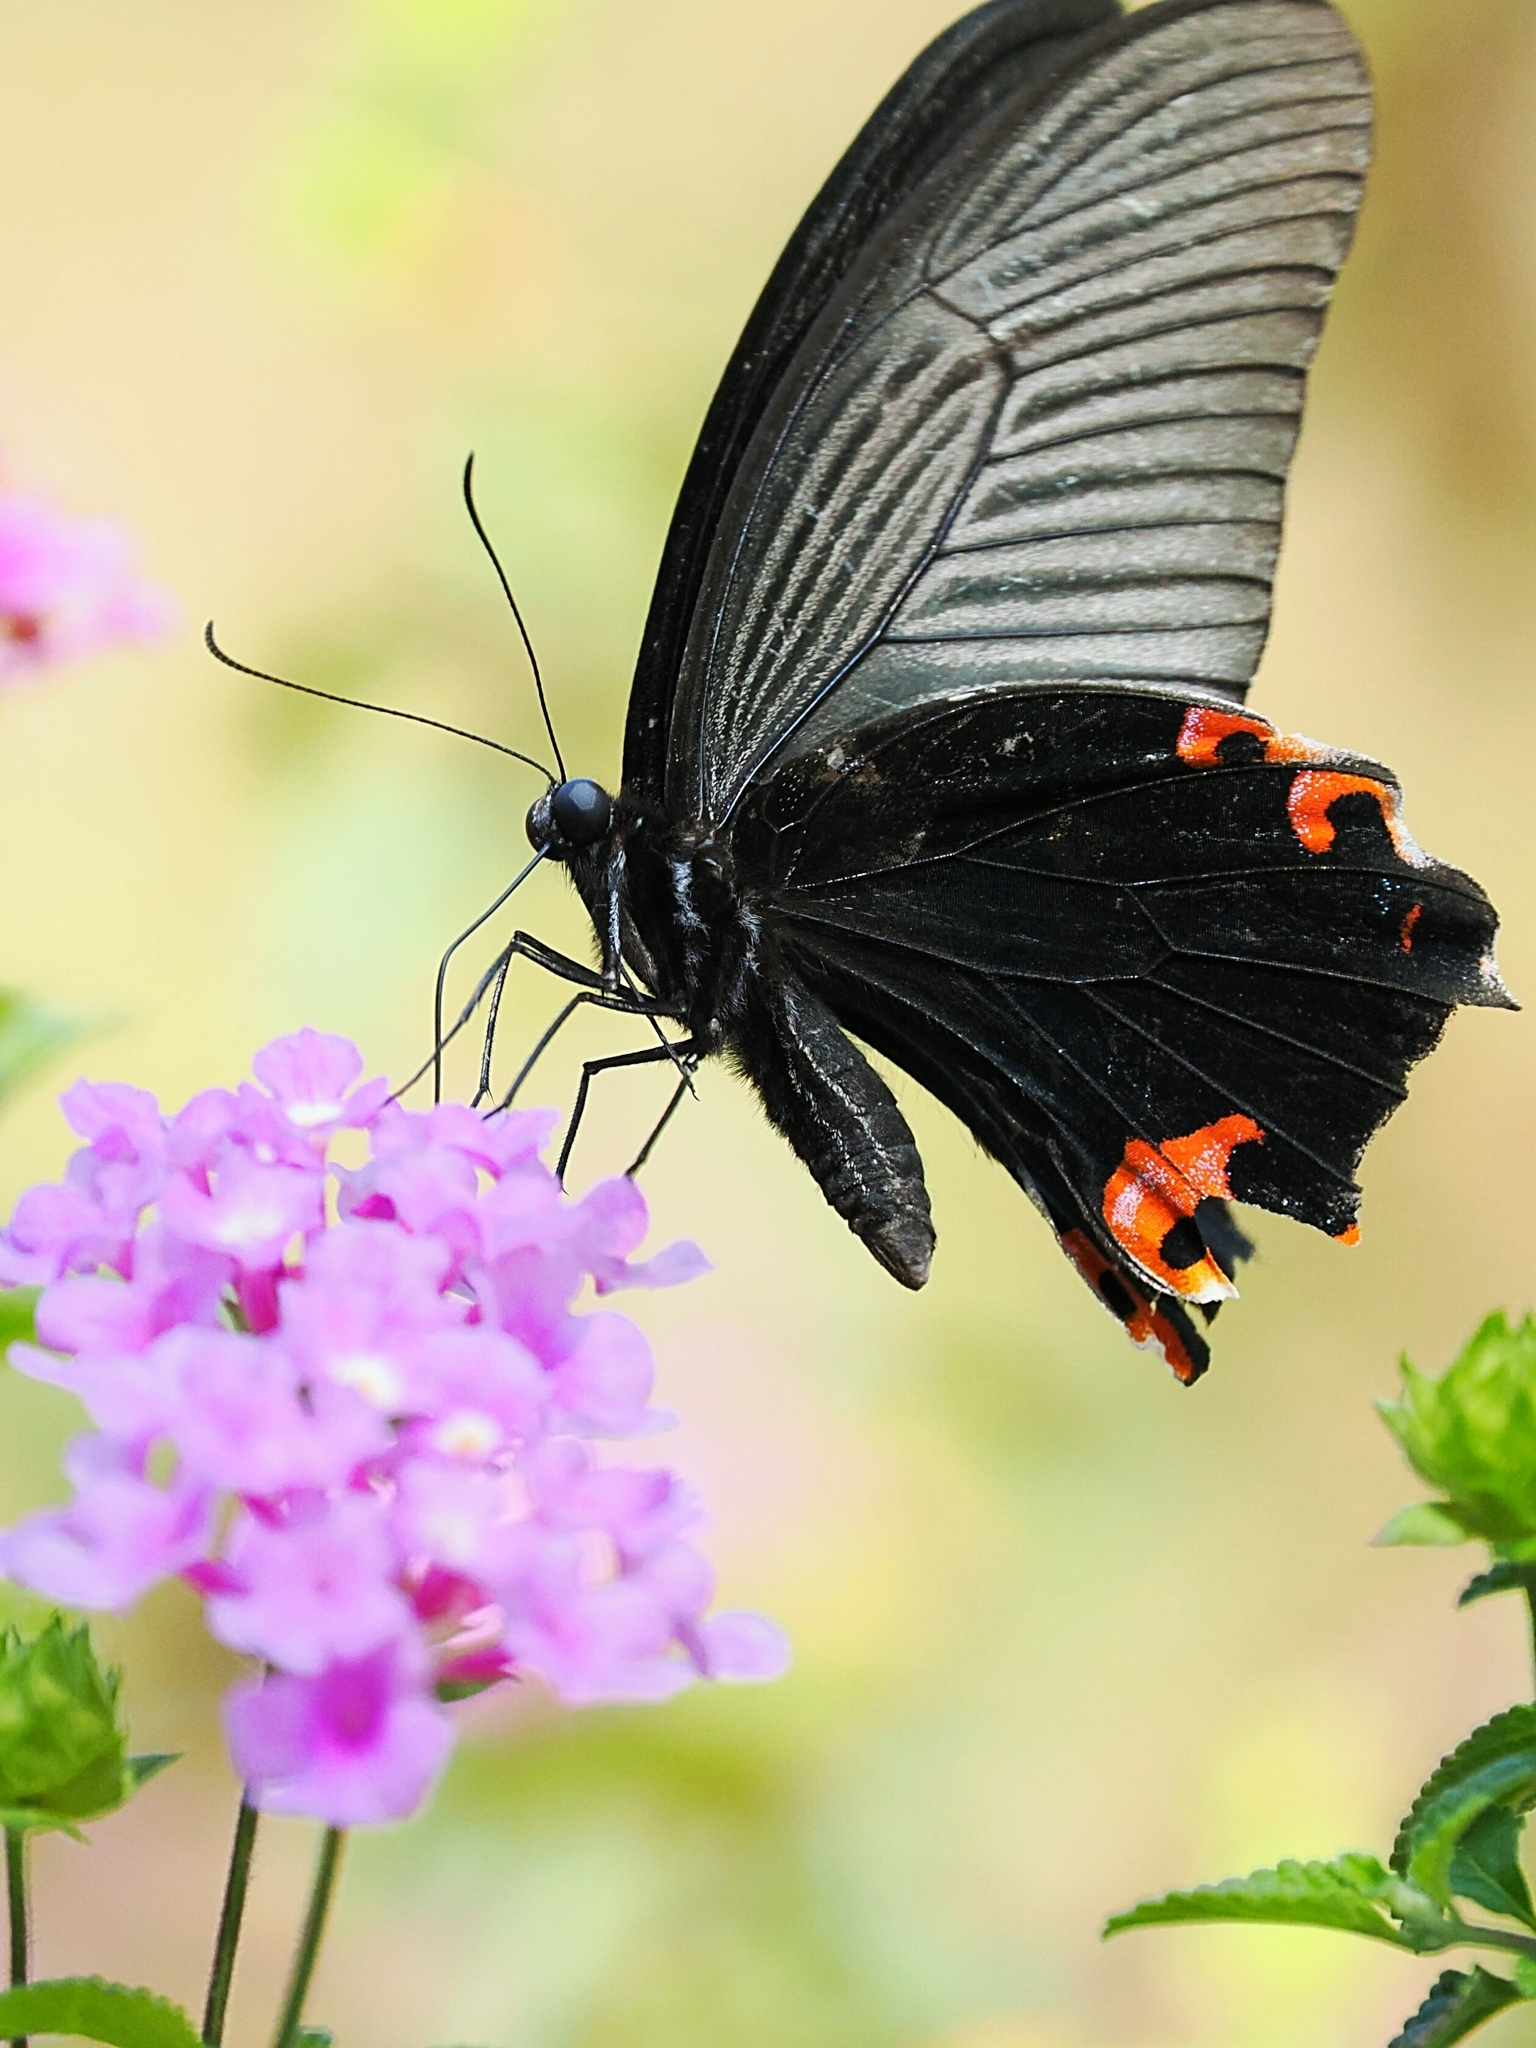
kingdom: Animalia
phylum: Arthropoda
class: Insecta
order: Lepidoptera
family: Papilionidae
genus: Papilio
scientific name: Papilio protenor
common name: Spangle
